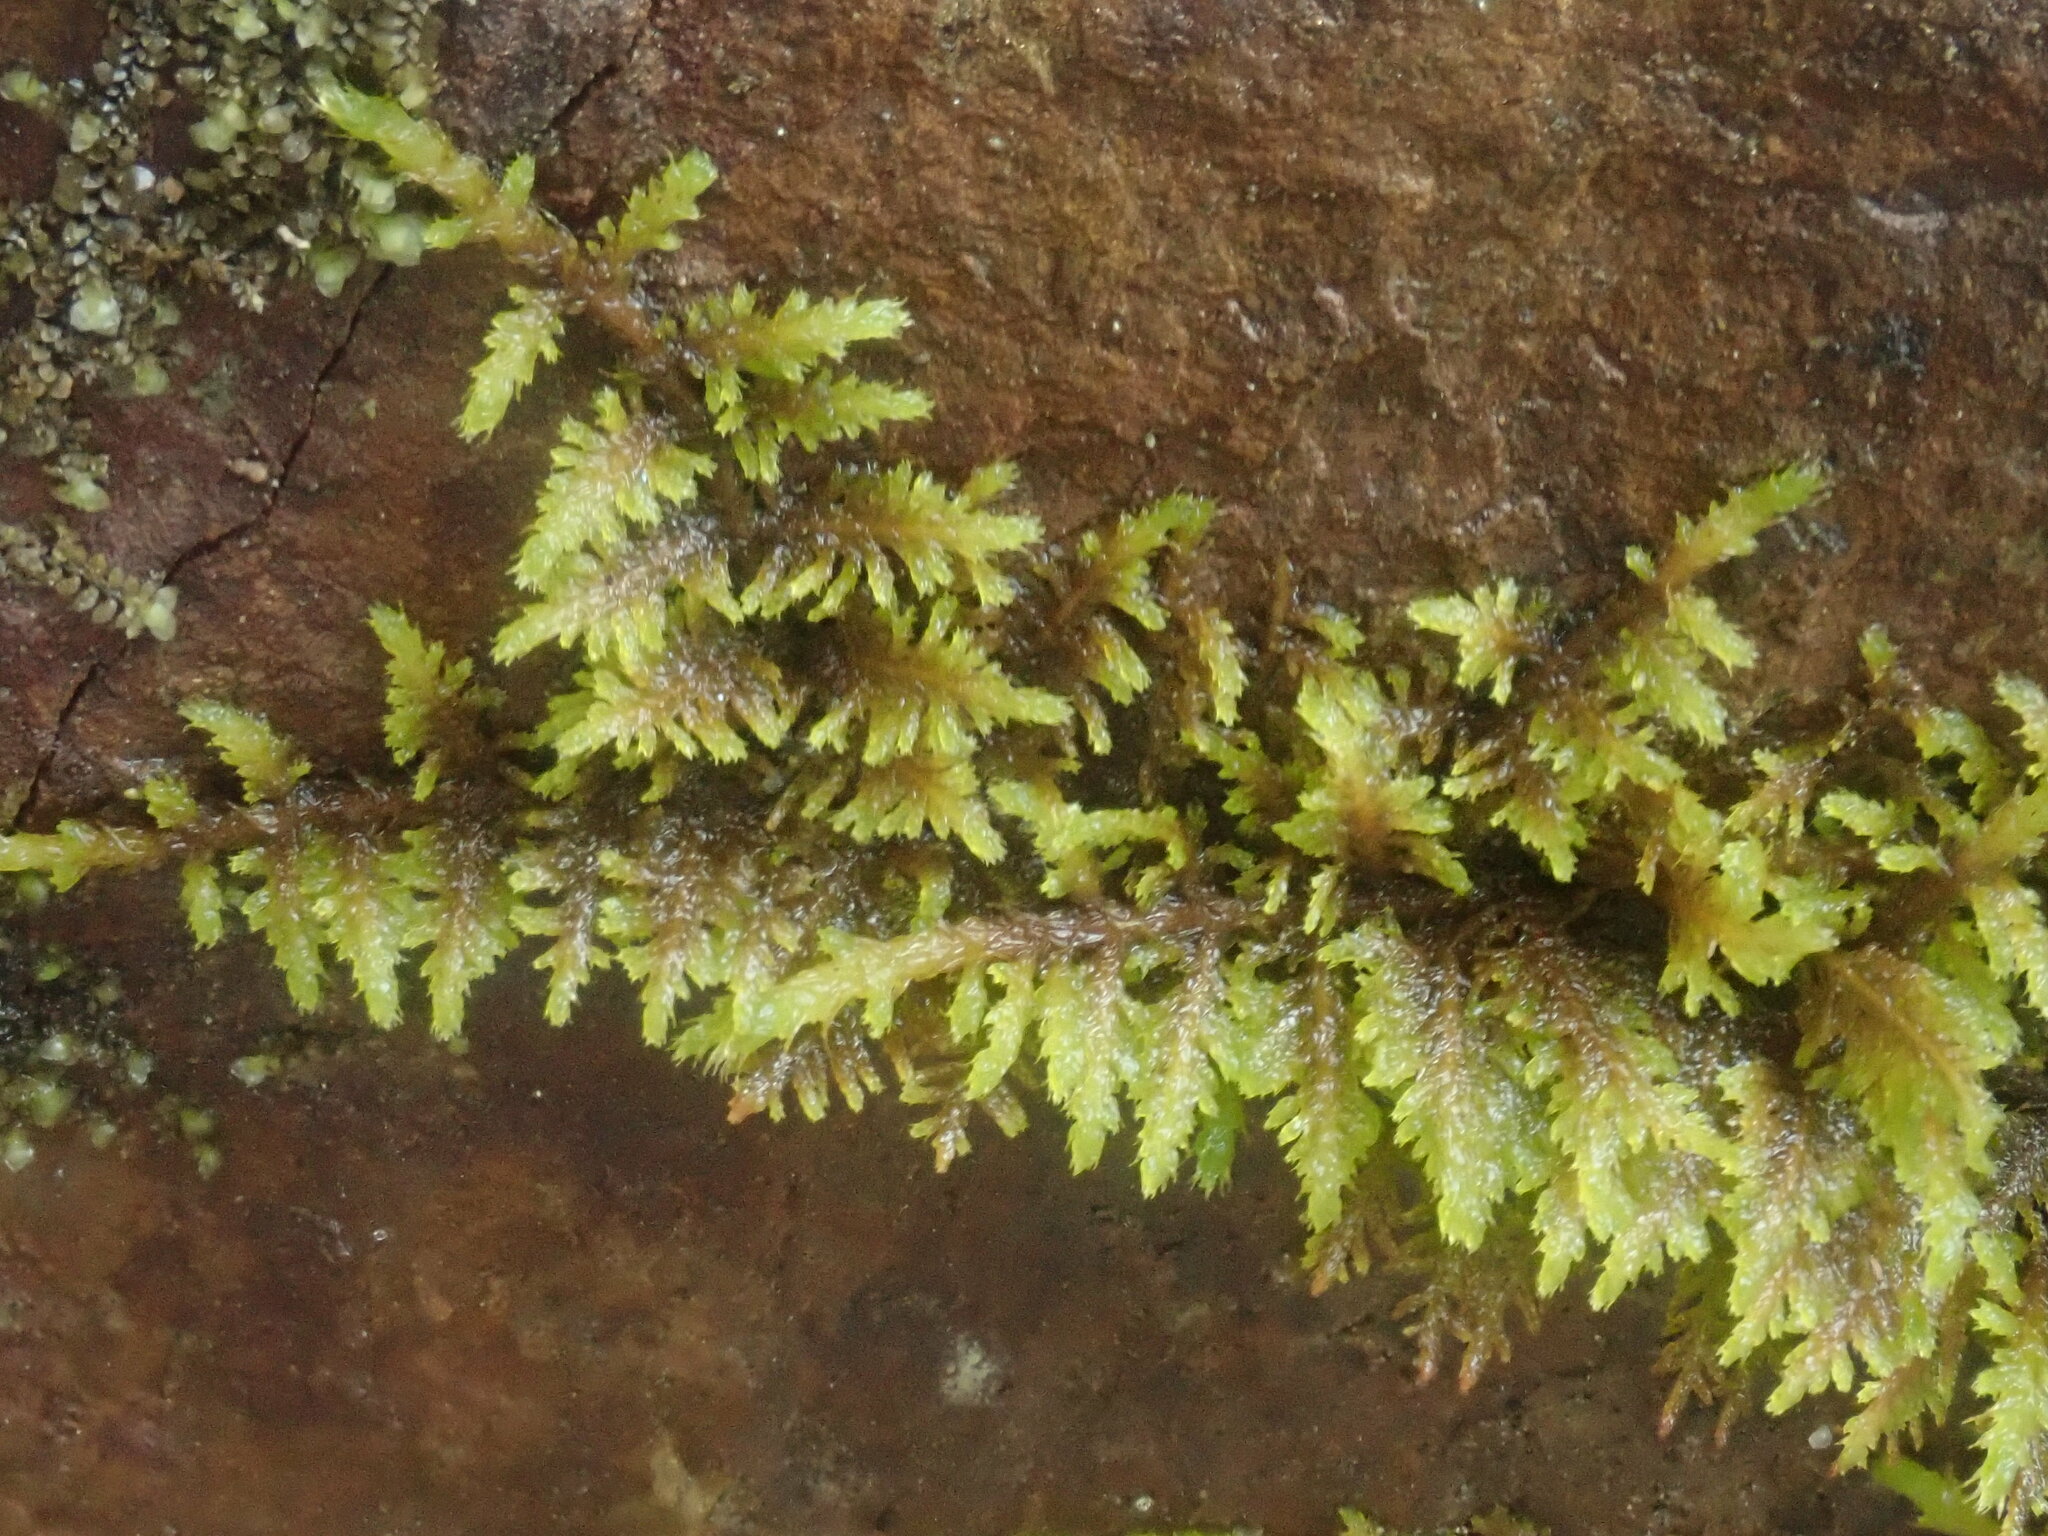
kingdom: Plantae
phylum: Bryophyta
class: Bryopsida
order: Hypnales
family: Thuidiaceae
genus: Thuidium
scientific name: Thuidium delicatulum
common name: Delicate fern moss
